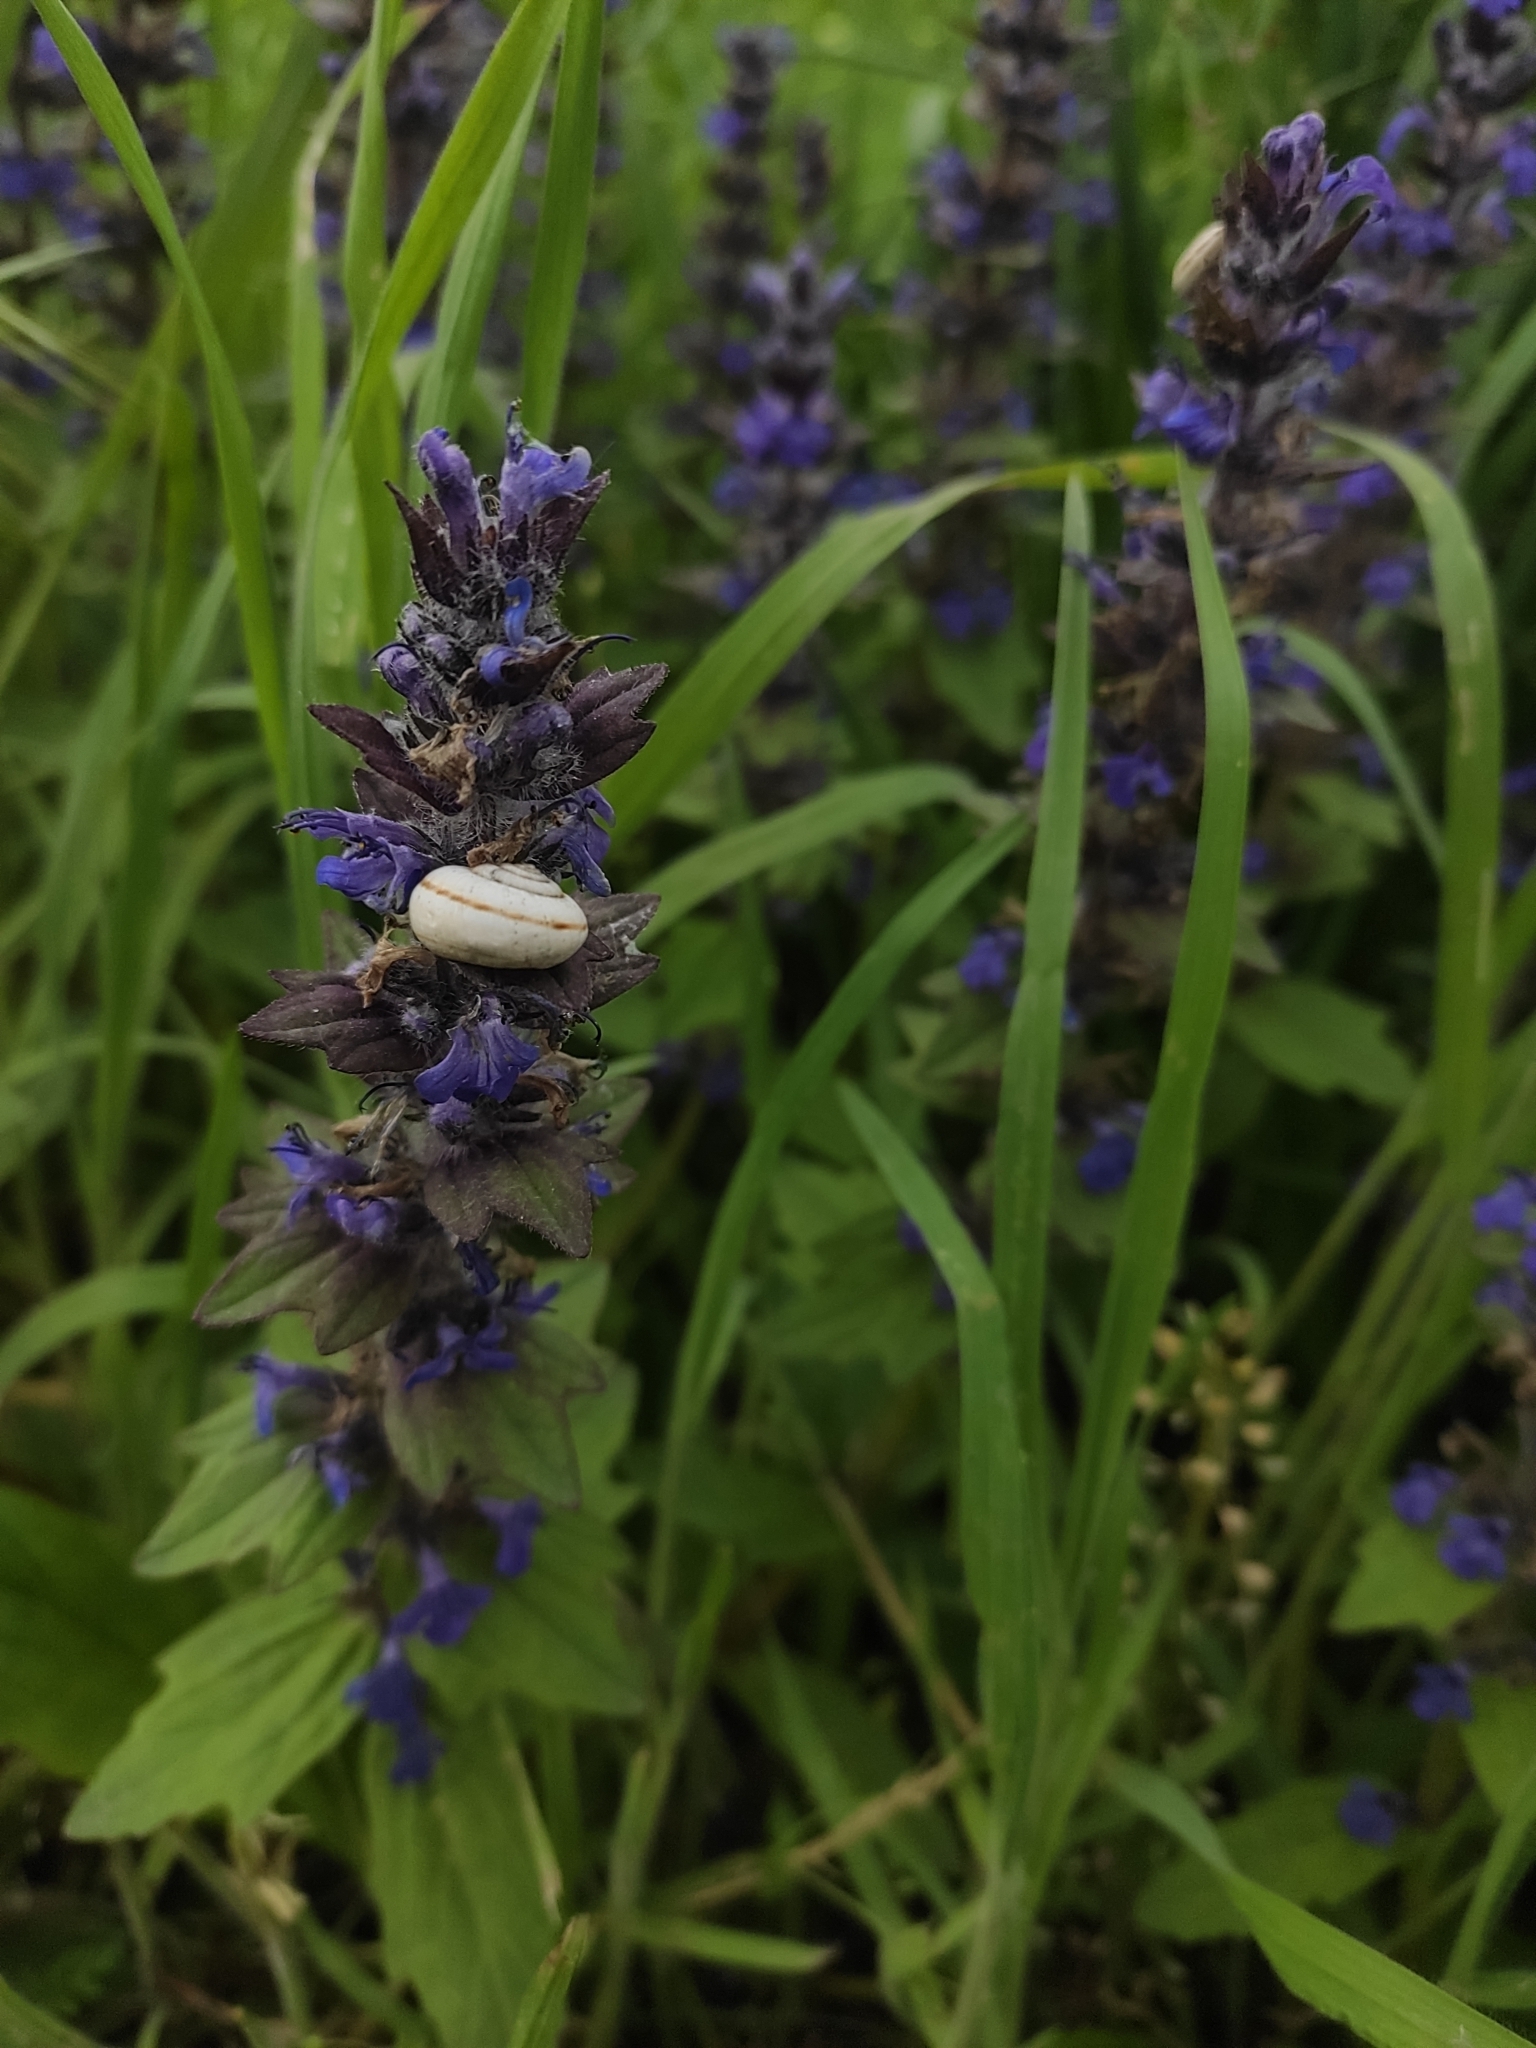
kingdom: Plantae
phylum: Tracheophyta
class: Magnoliopsida
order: Lamiales
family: Lamiaceae
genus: Ajuga
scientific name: Ajuga genevensis
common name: Blue bugle
